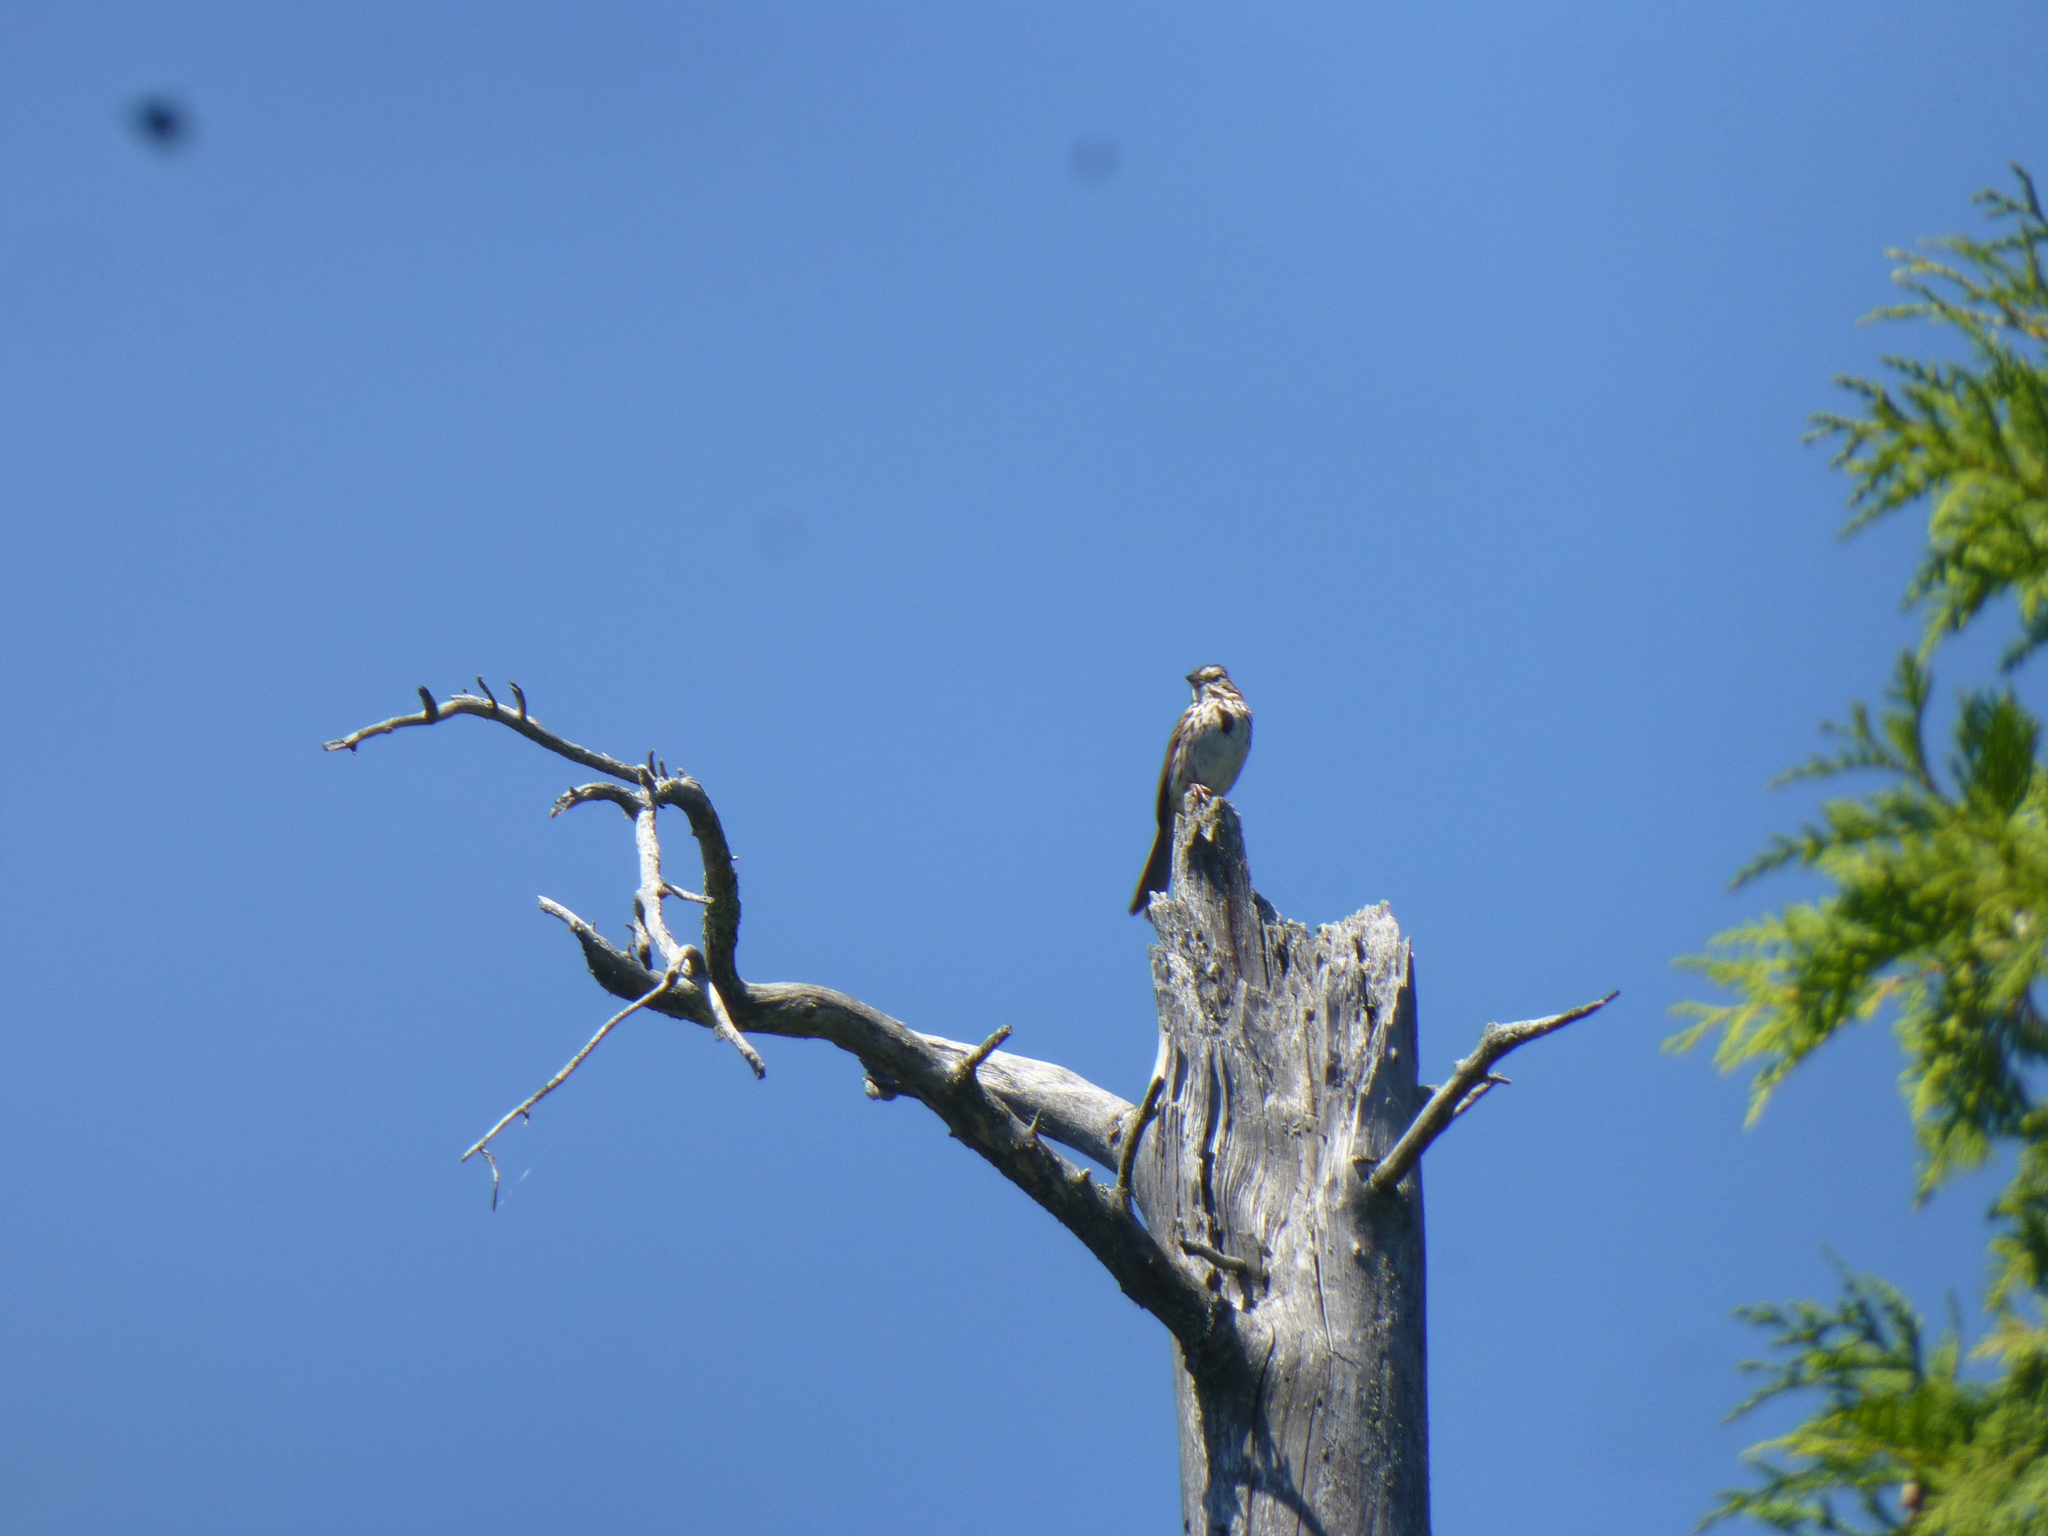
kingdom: Animalia
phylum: Chordata
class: Aves
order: Passeriformes
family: Passerellidae
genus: Melospiza
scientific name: Melospiza melodia
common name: Song sparrow
